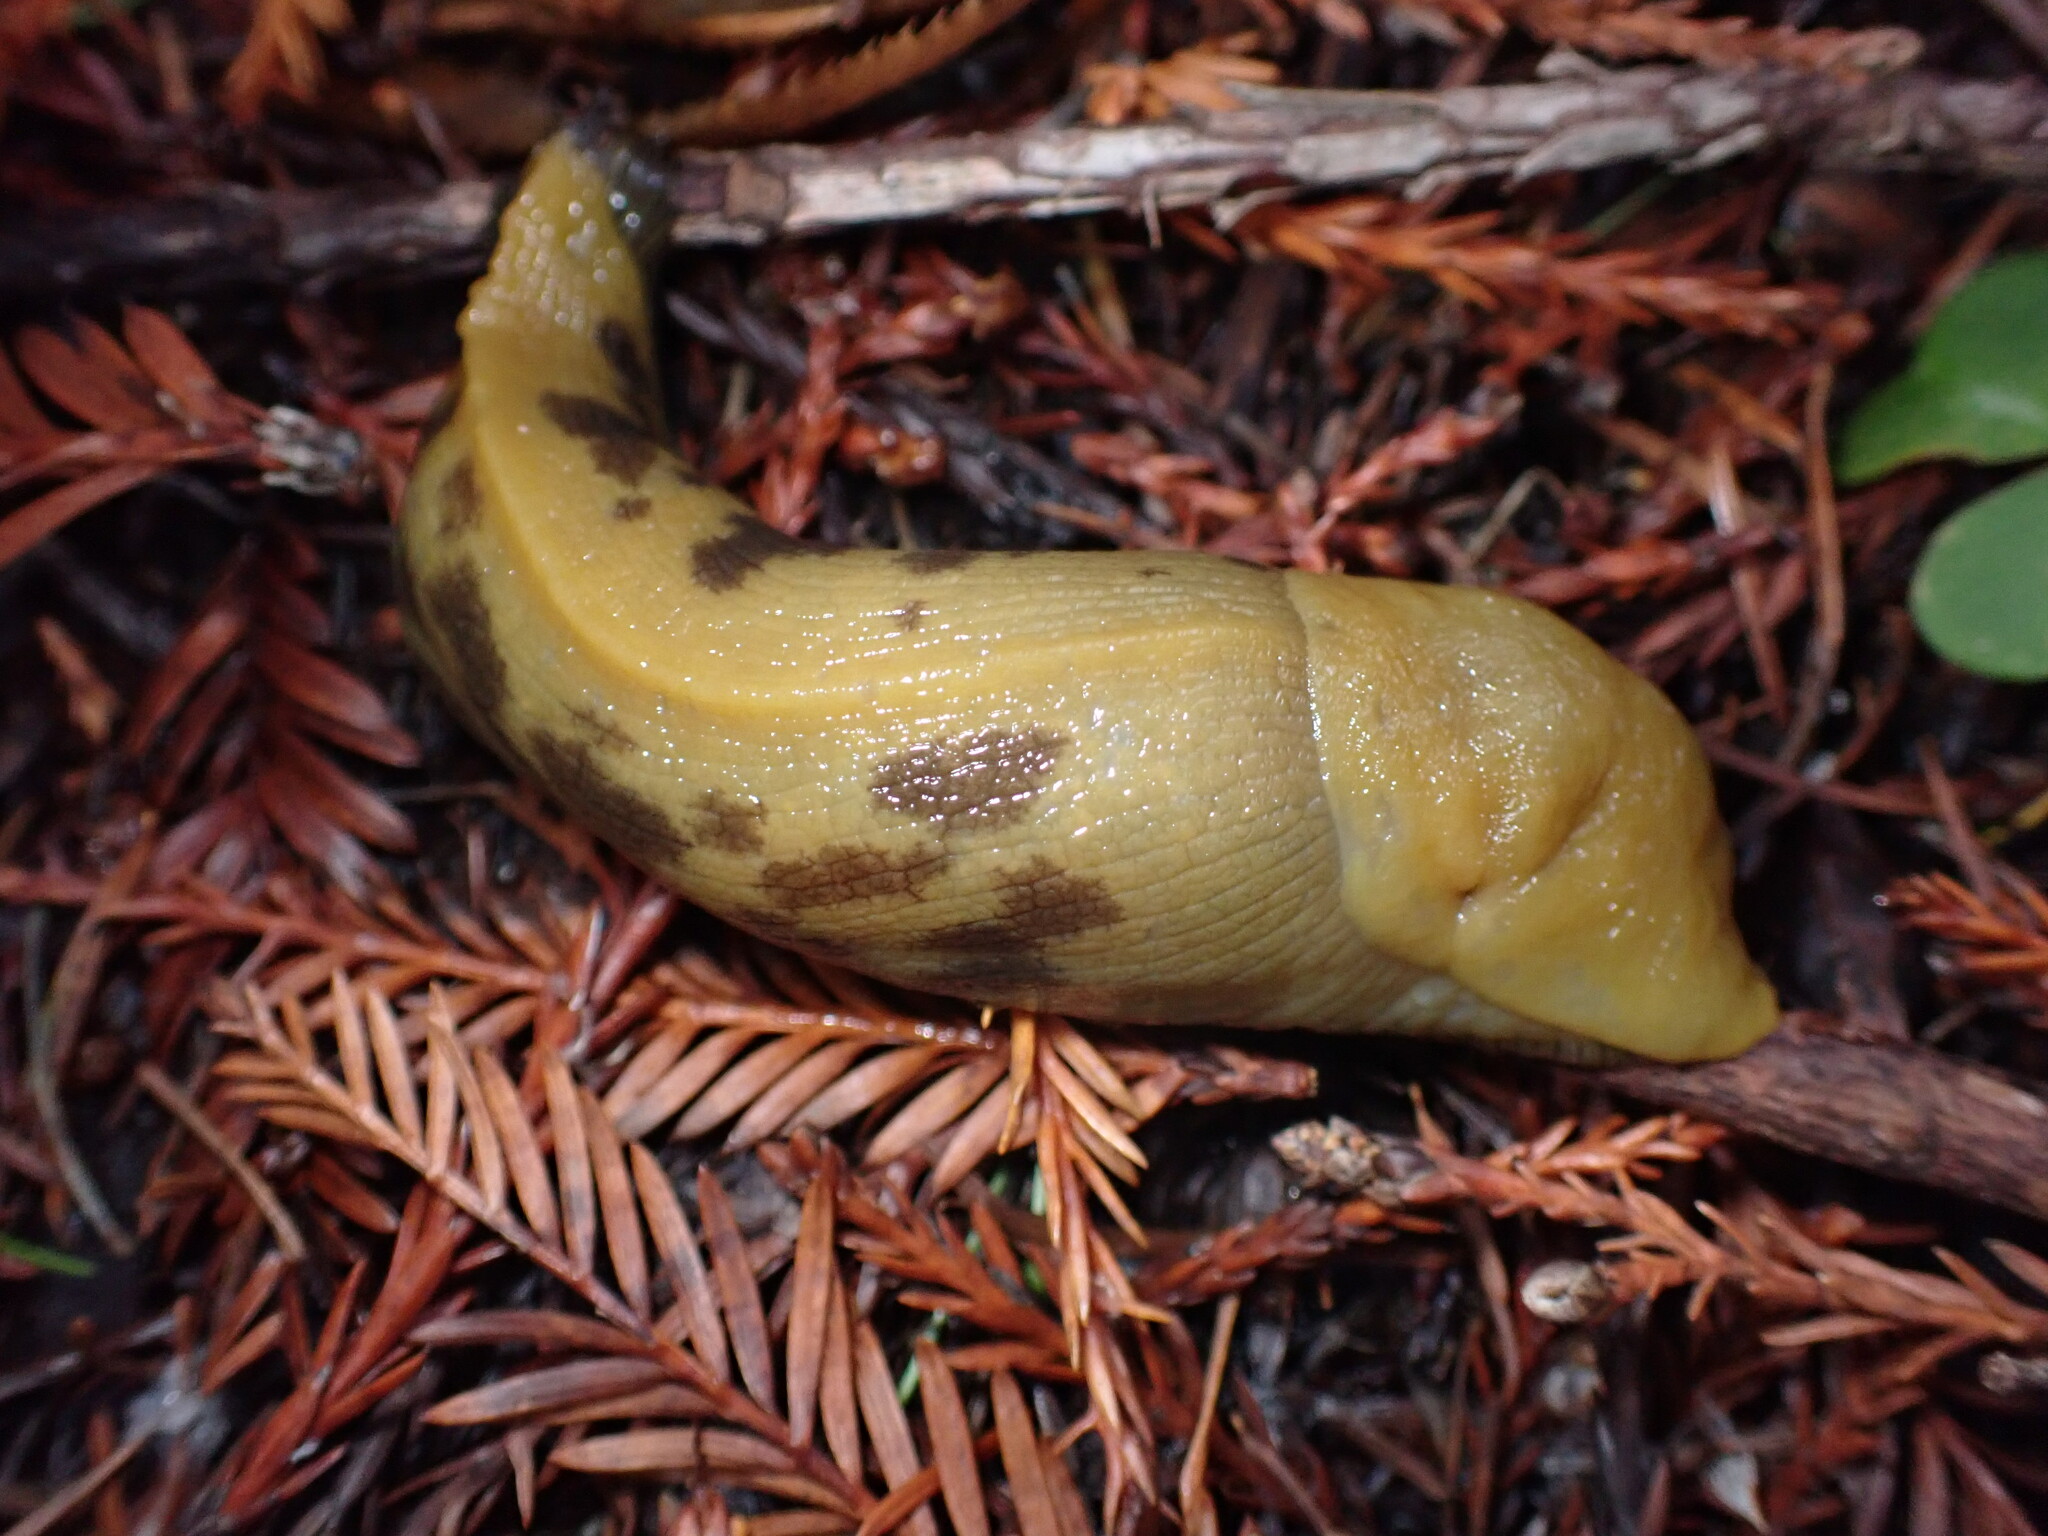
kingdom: Animalia
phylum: Mollusca
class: Gastropoda
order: Stylommatophora
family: Ariolimacidae
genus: Ariolimax
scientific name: Ariolimax buttoni
